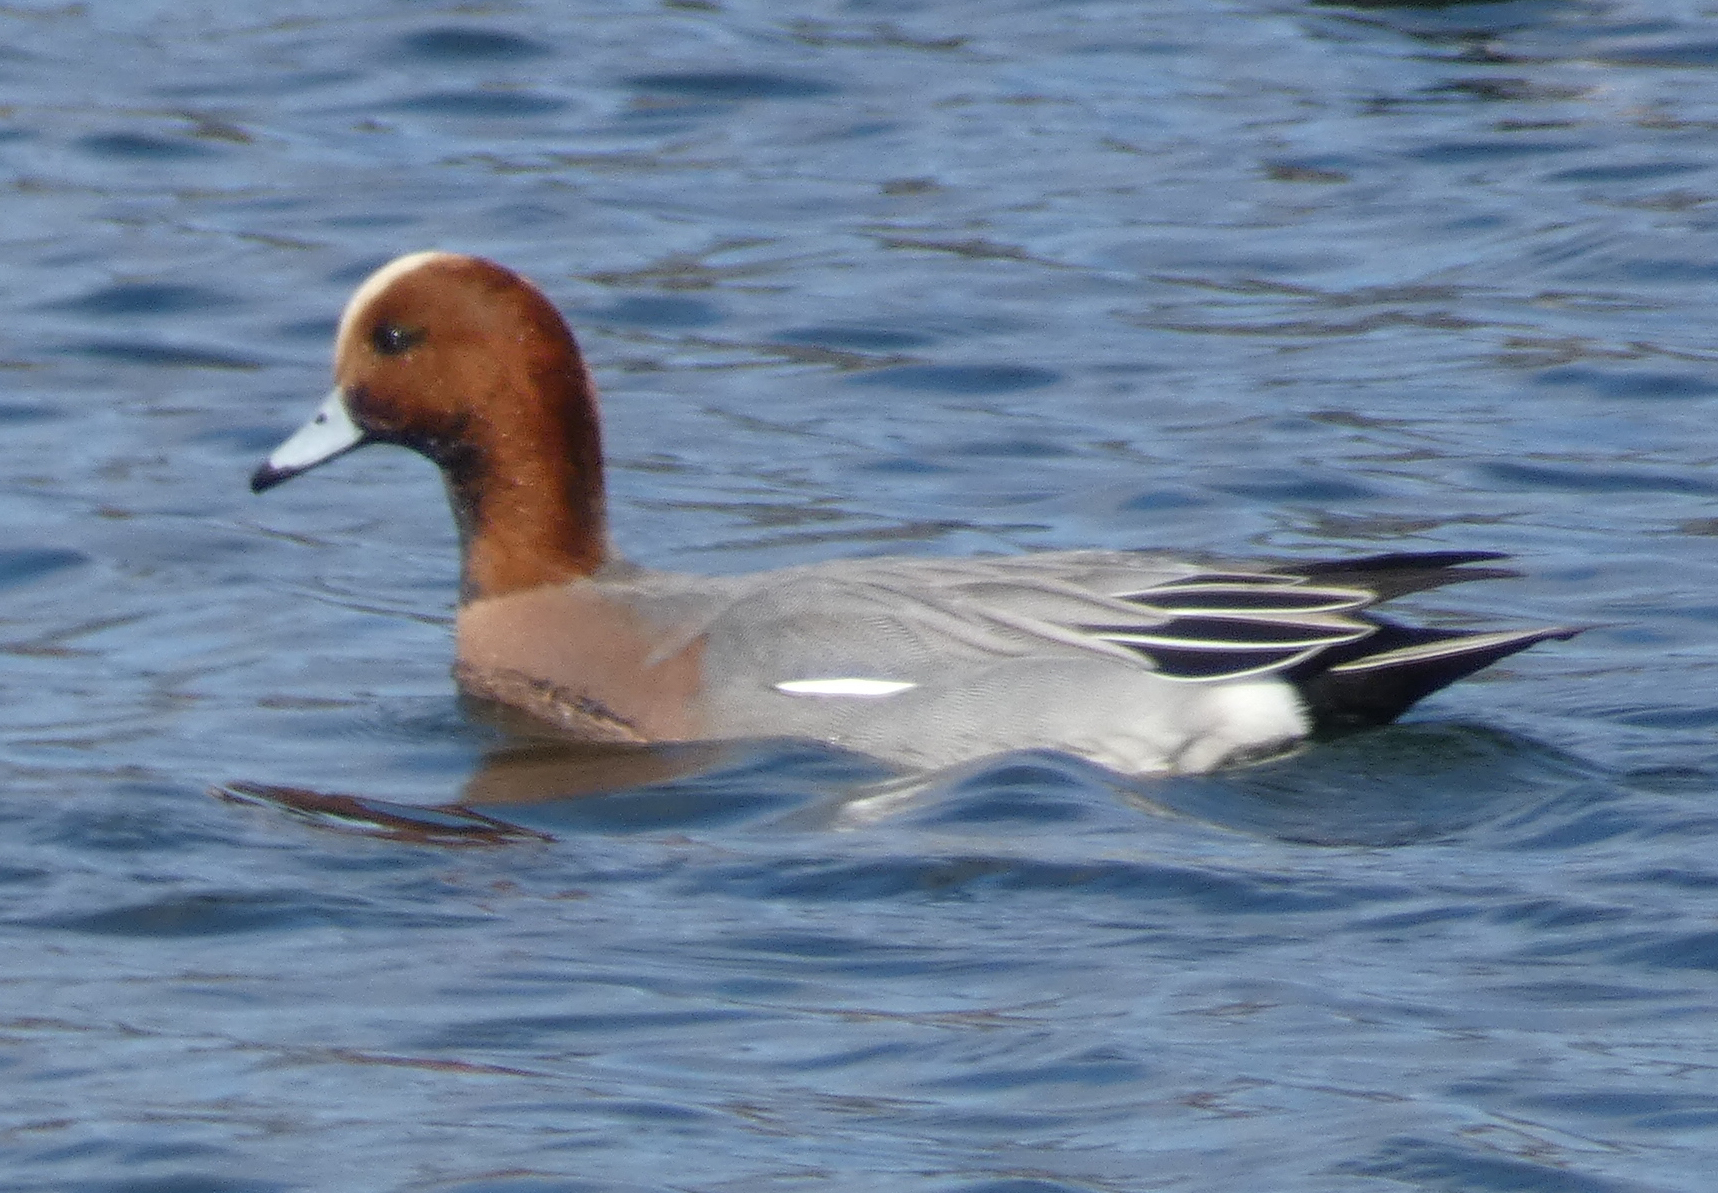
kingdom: Animalia
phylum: Chordata
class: Aves
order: Anseriformes
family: Anatidae
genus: Mareca
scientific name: Mareca penelope
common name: Eurasian wigeon
